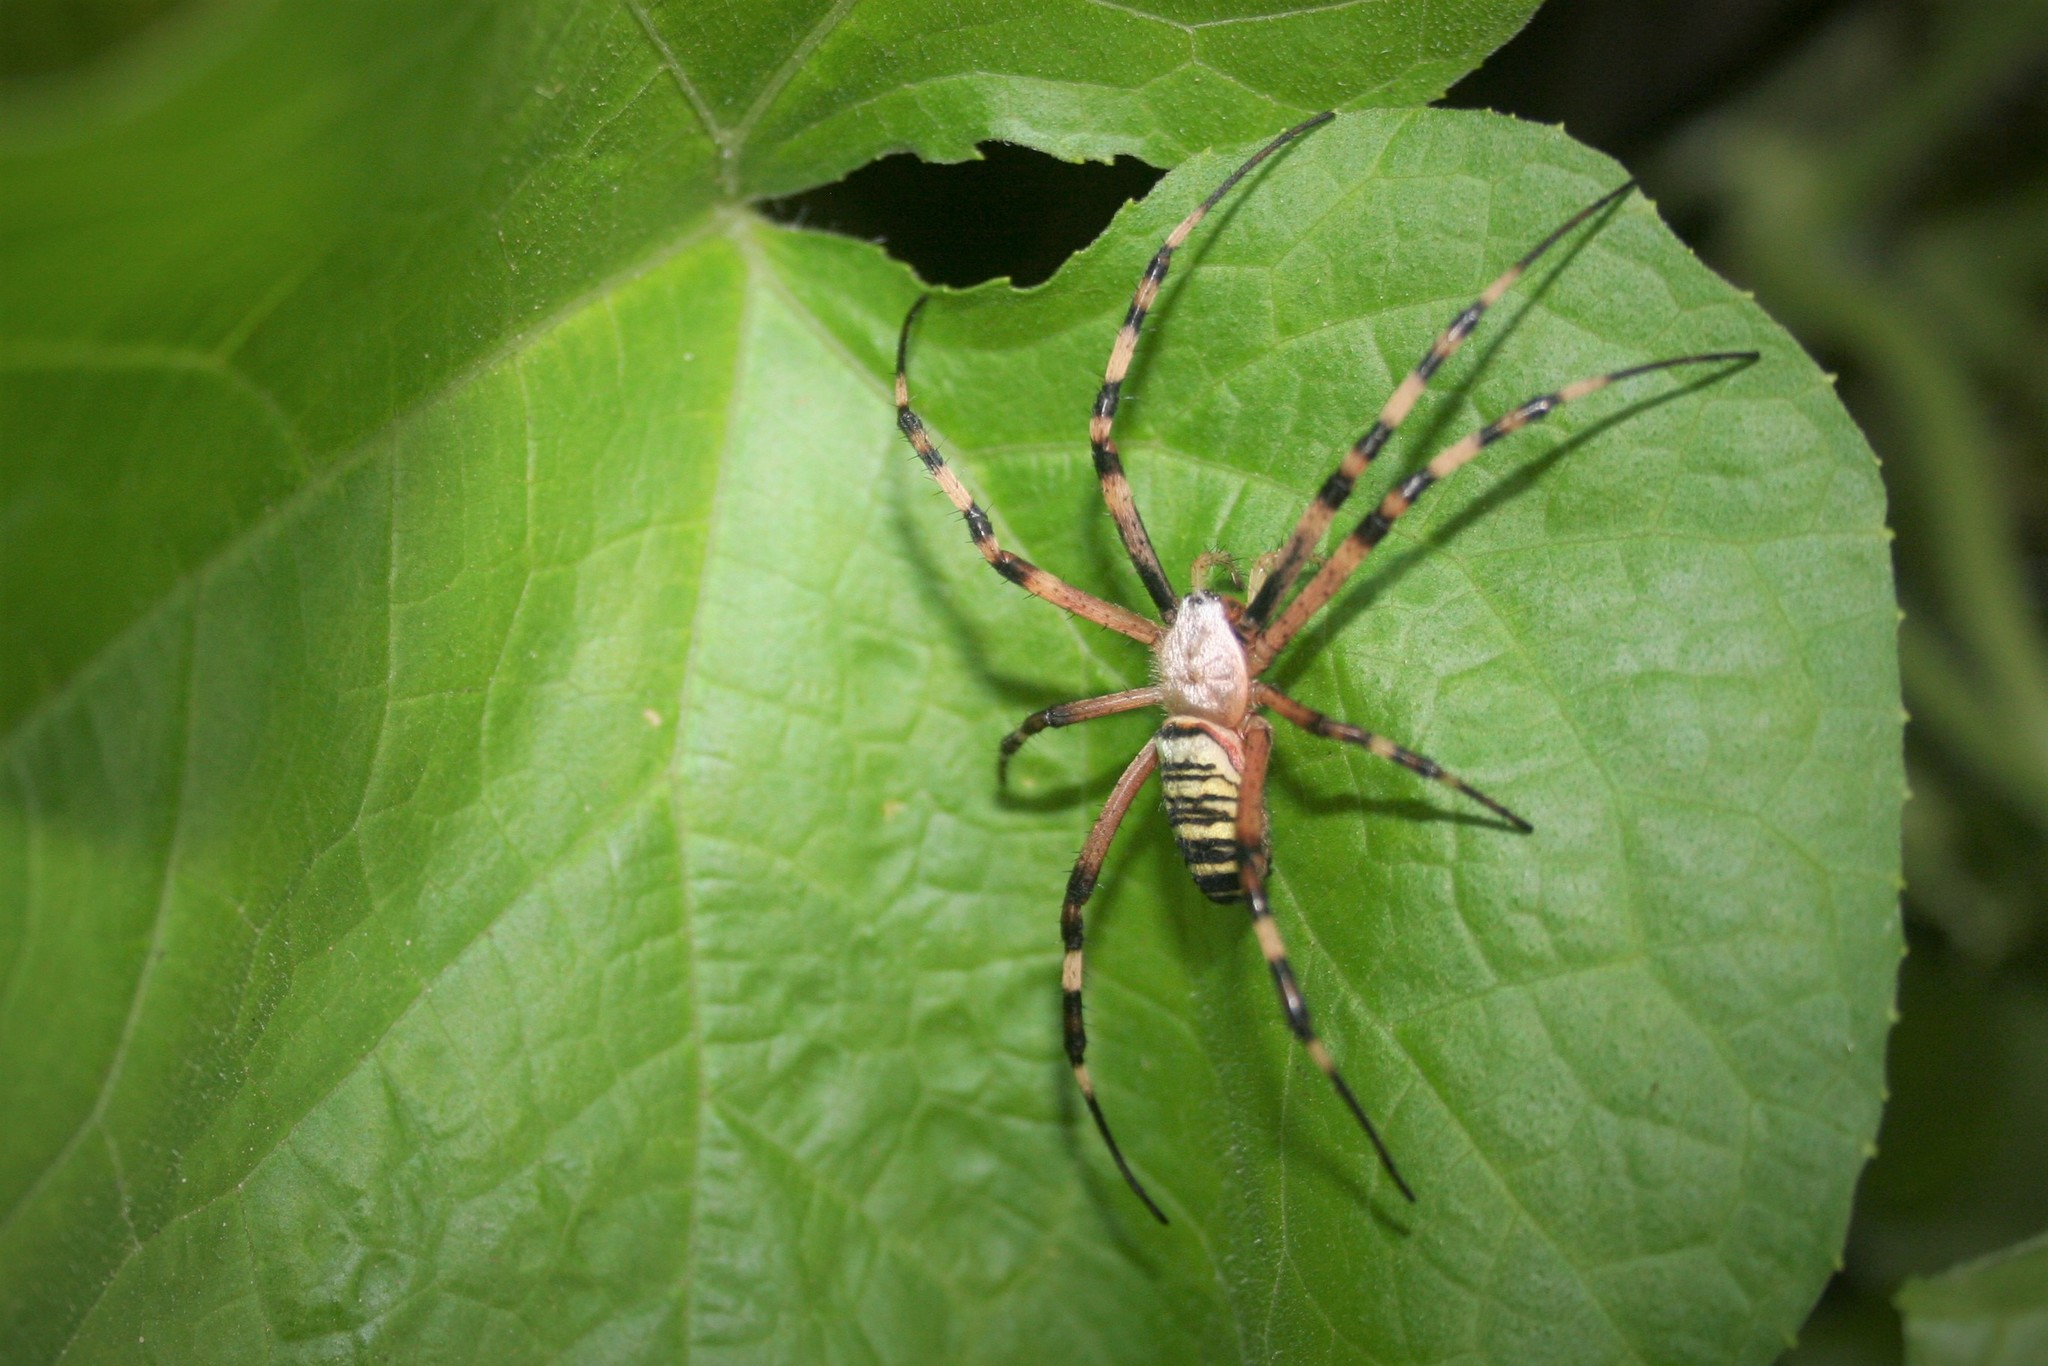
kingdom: Animalia
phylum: Arthropoda
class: Arachnida
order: Araneae
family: Araneidae
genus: Argiope
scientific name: Argiope bruennichi
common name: Wasp spider
